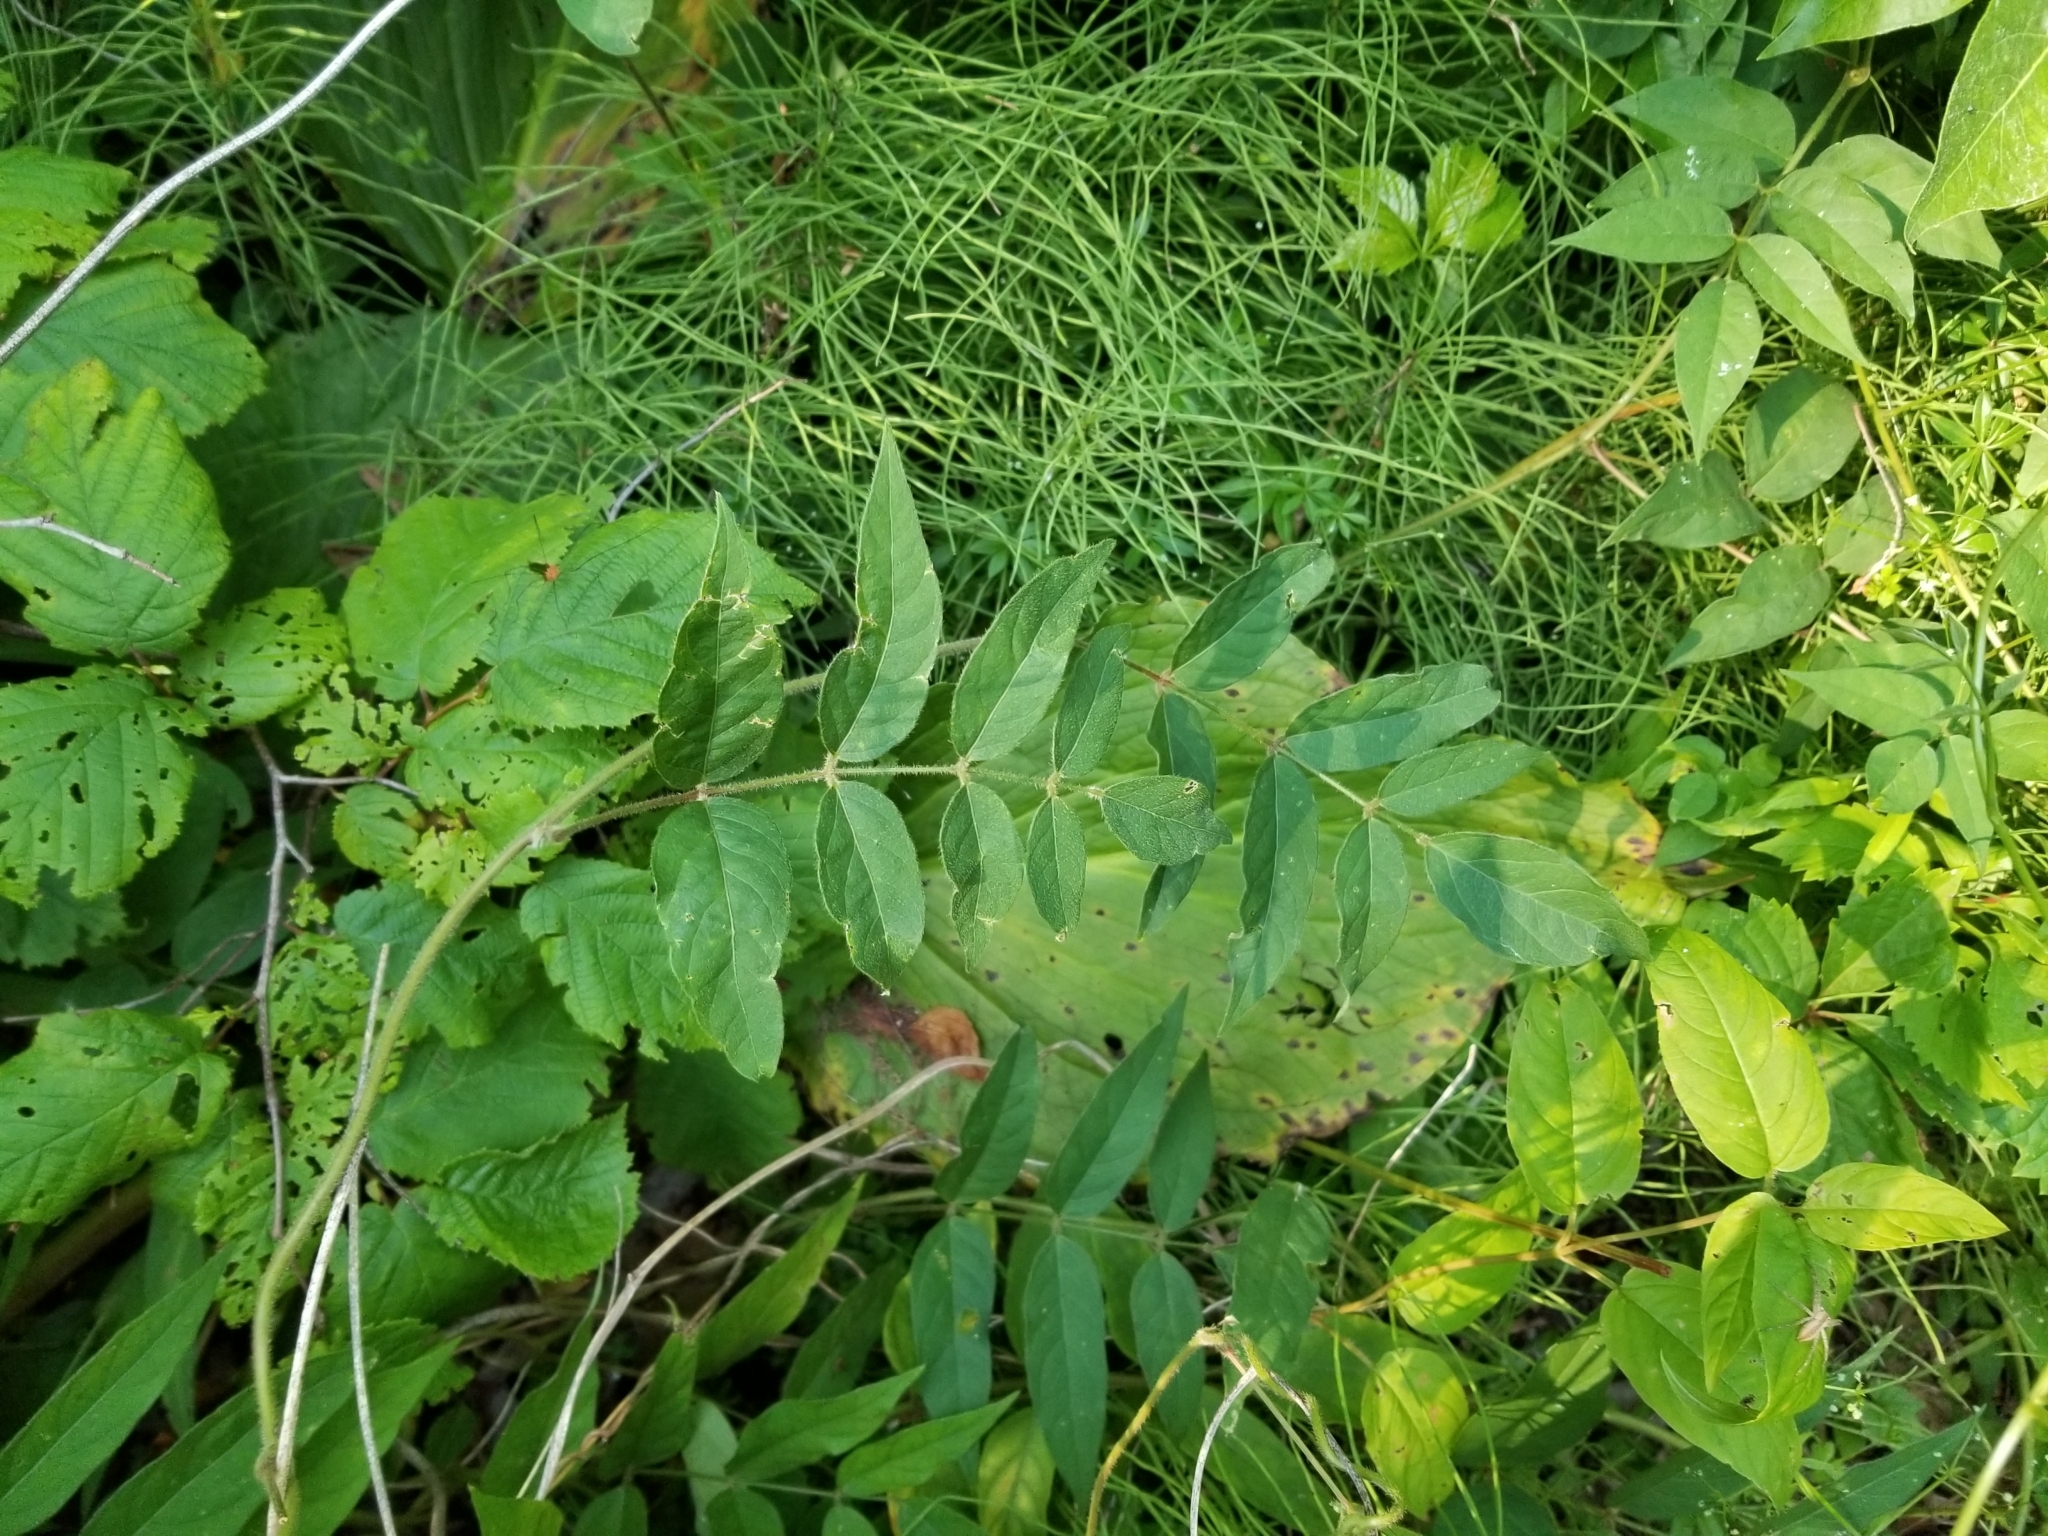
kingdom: Plantae
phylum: Tracheophyta
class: Magnoliopsida
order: Fabales
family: Fabaceae
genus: Apios
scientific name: Apios americana
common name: American potato-bean
